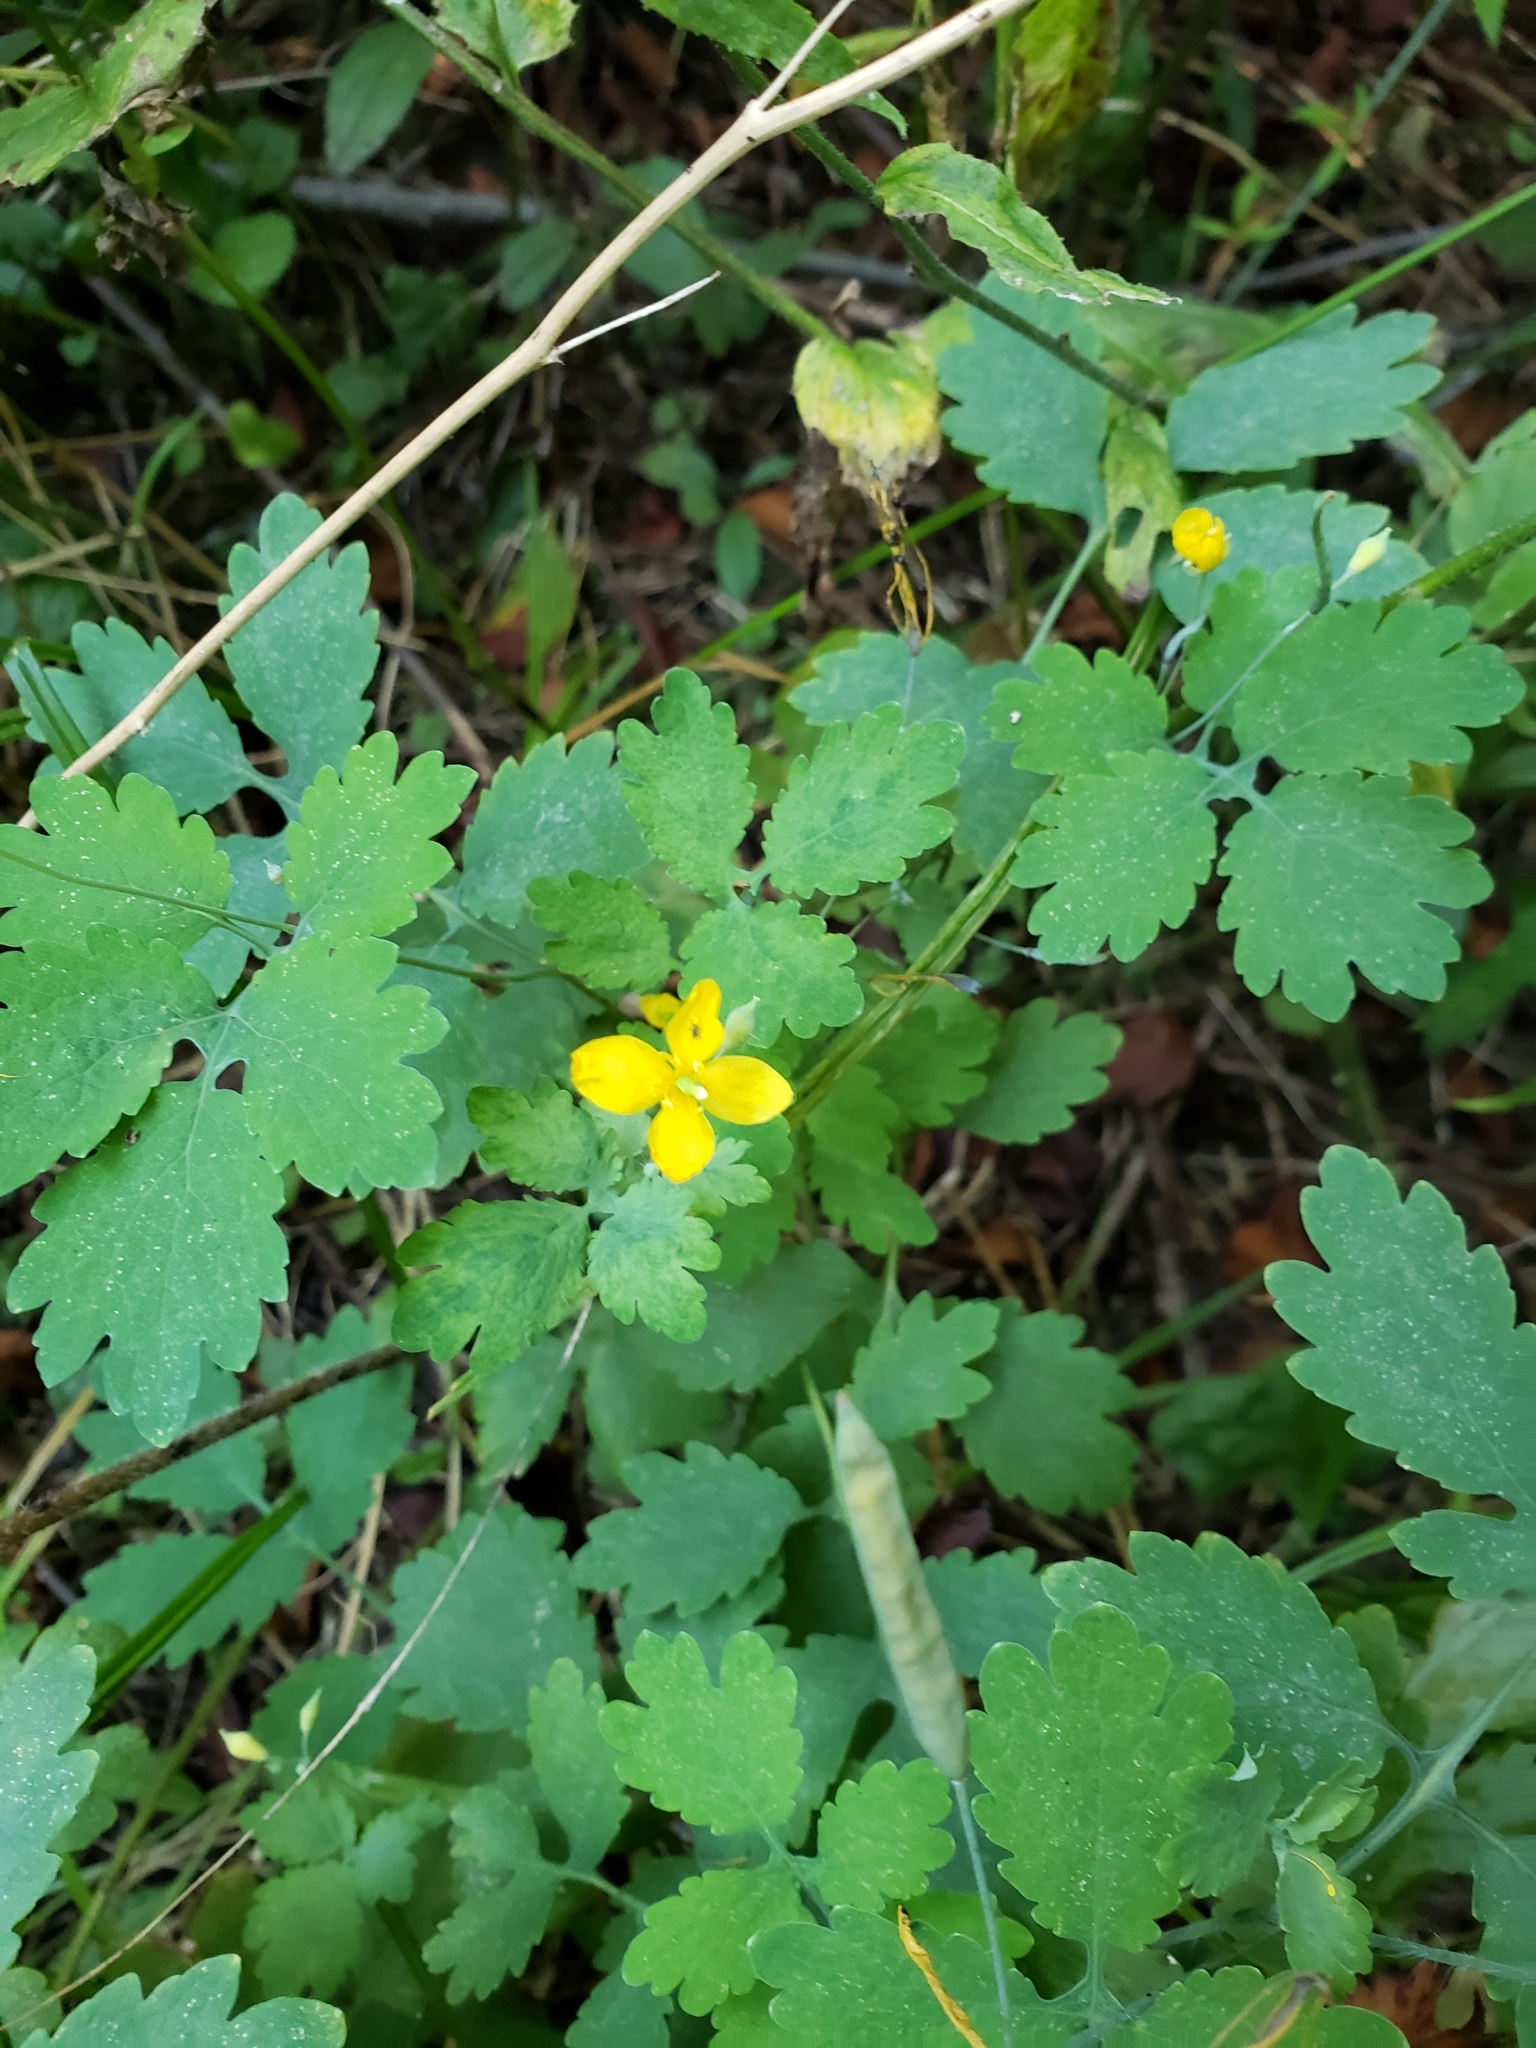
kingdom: Plantae
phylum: Tracheophyta
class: Magnoliopsida
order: Ranunculales
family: Papaveraceae
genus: Chelidonium
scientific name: Chelidonium majus
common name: Greater celandine
